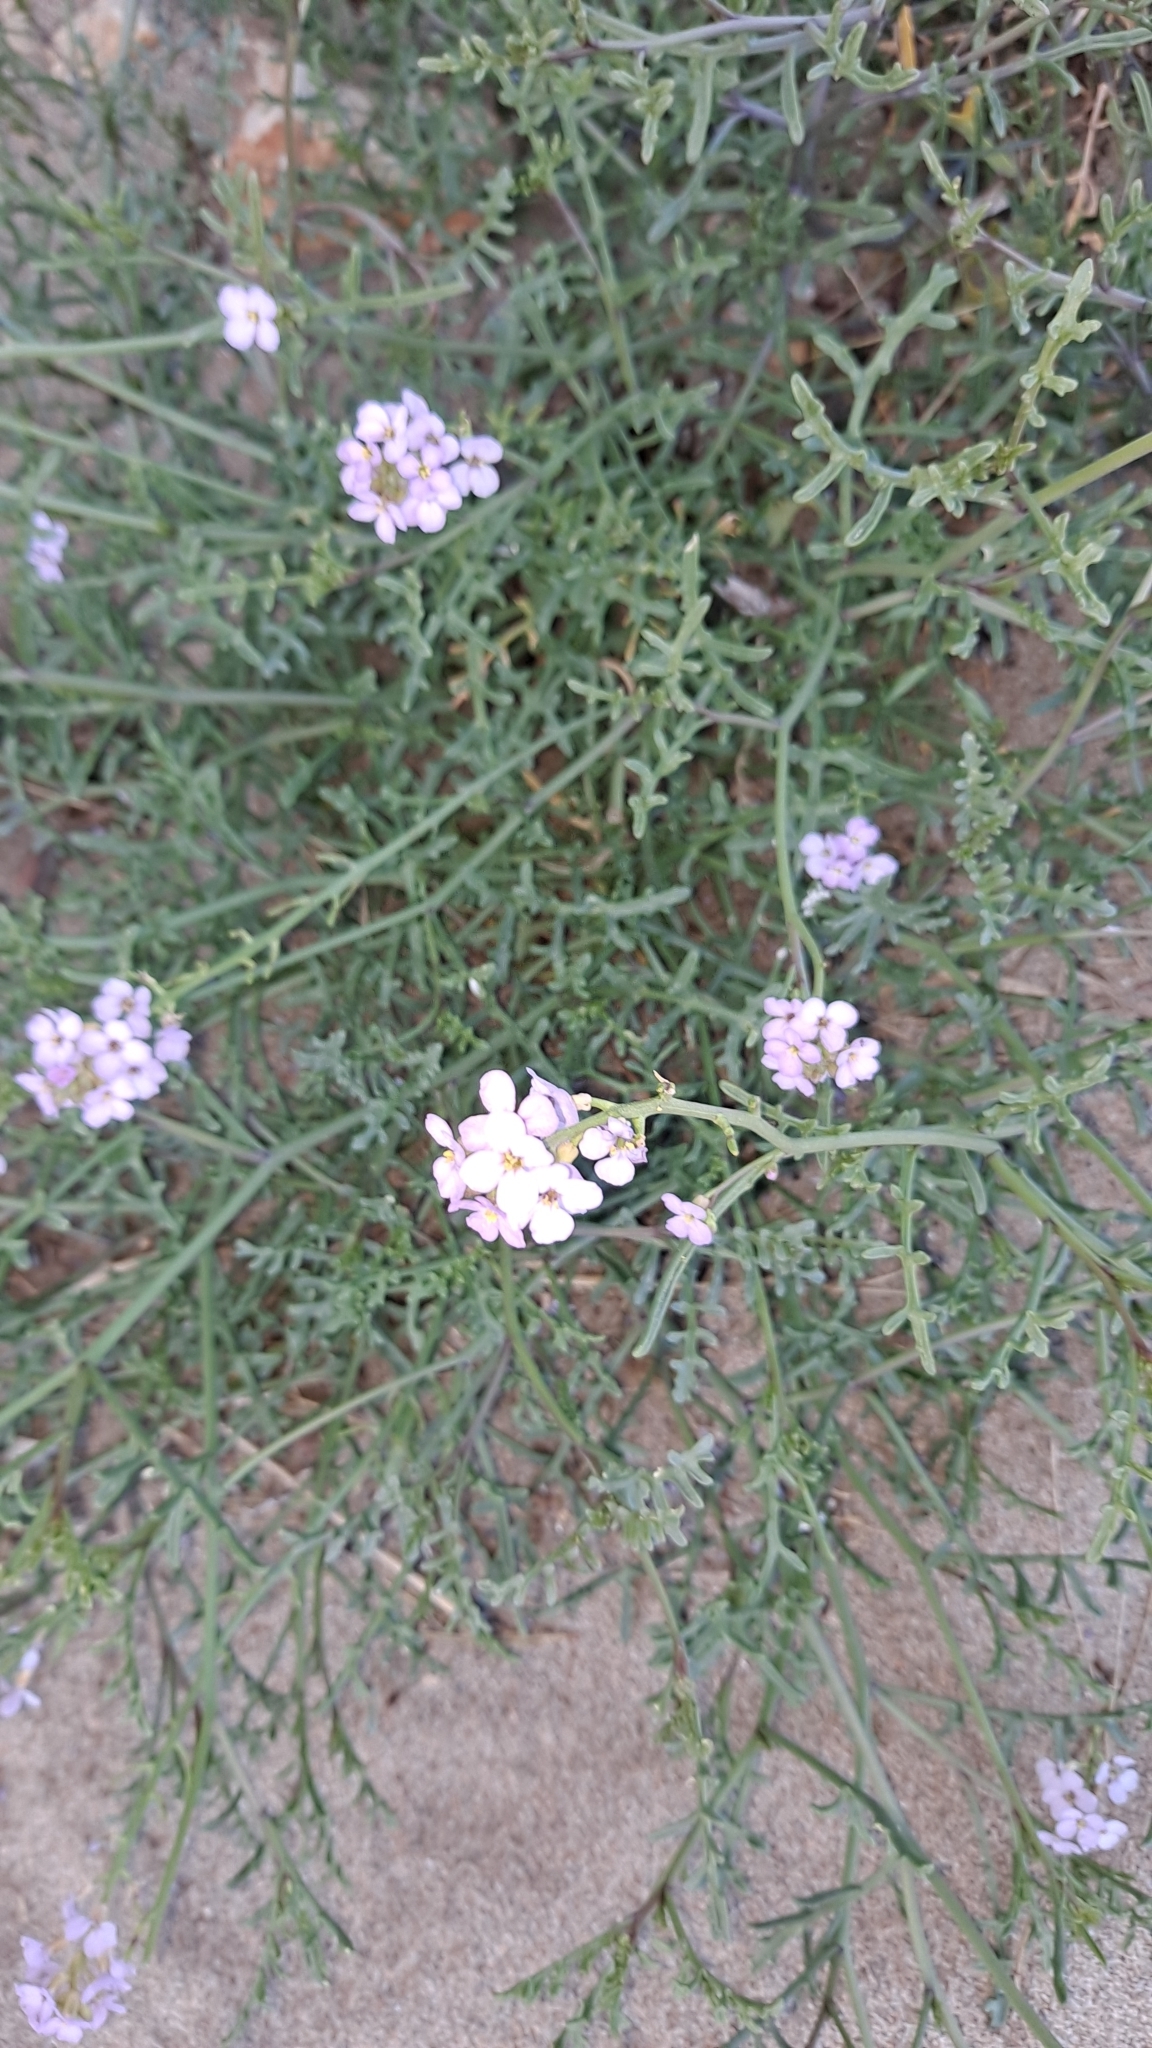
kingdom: Plantae
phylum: Tracheophyta
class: Magnoliopsida
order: Brassicales
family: Brassicaceae
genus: Cakile
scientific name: Cakile maritima
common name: Sea rocket
